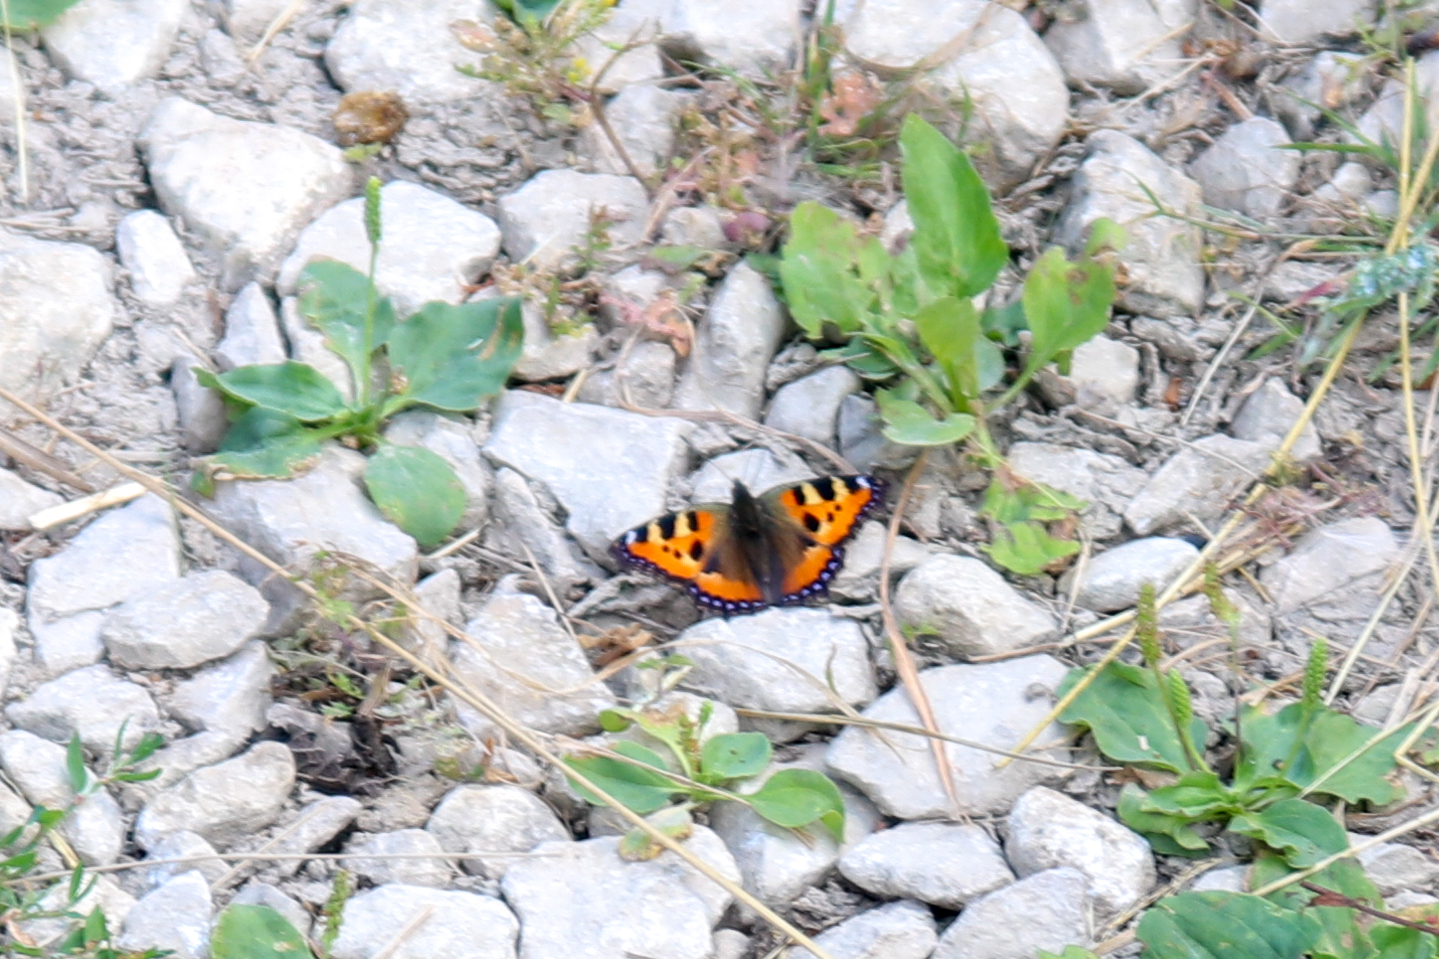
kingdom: Animalia
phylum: Arthropoda
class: Insecta
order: Lepidoptera
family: Nymphalidae
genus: Aglais
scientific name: Aglais urticae
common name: Small tortoiseshell
